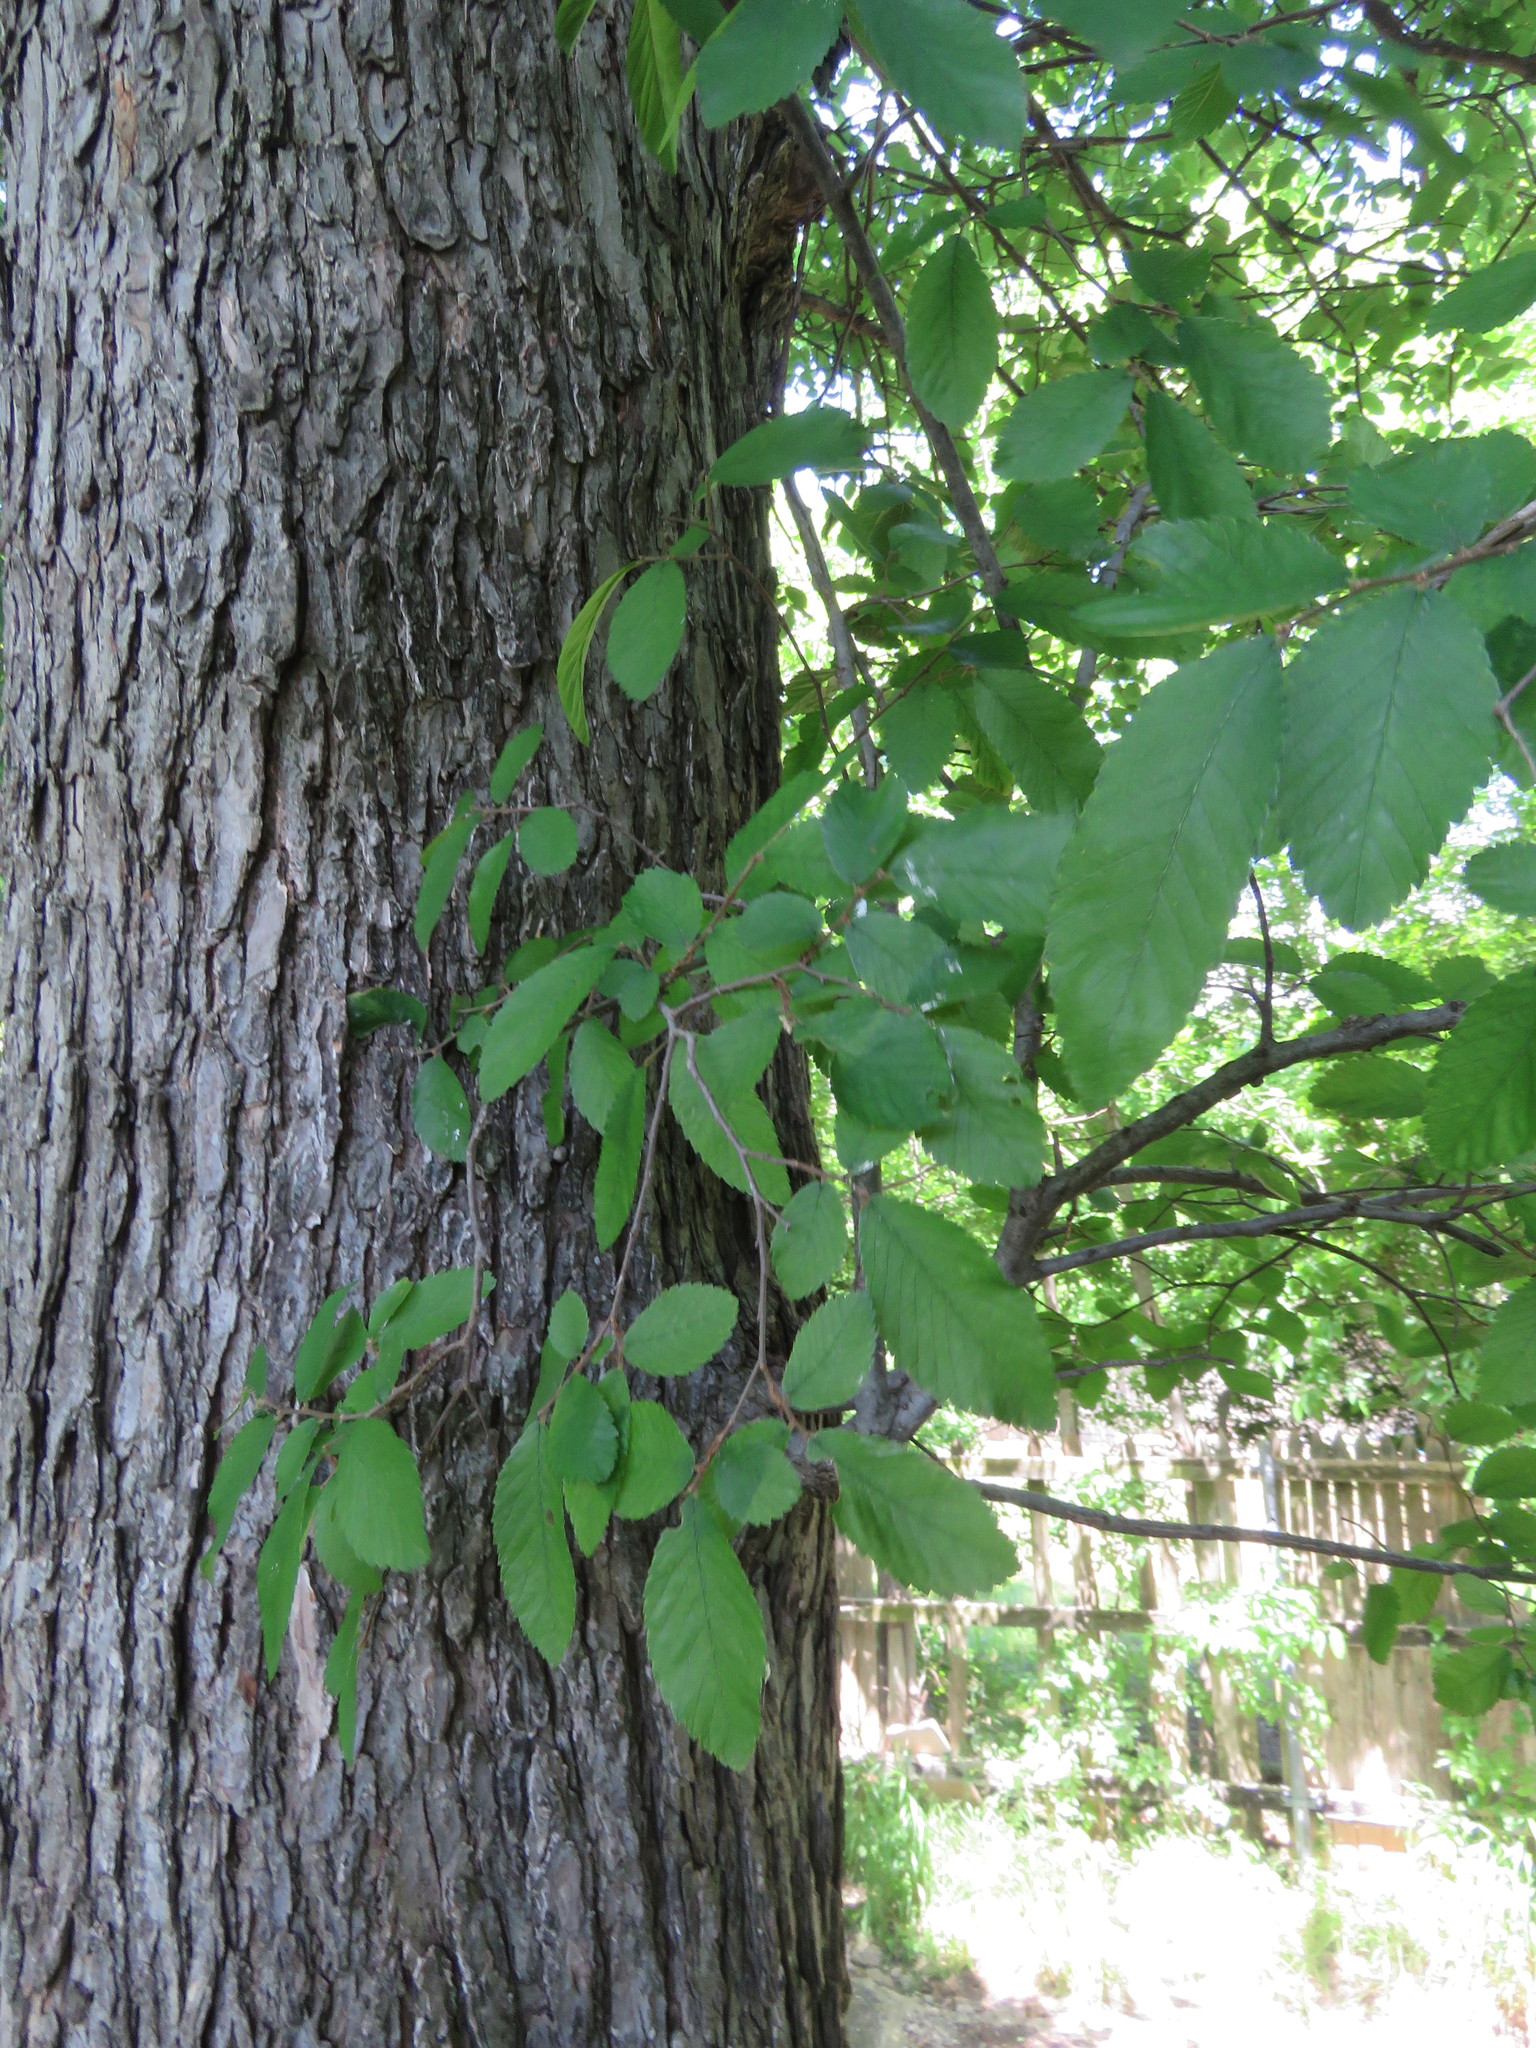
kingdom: Plantae
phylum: Tracheophyta
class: Magnoliopsida
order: Rosales
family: Ulmaceae
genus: Ulmus
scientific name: Ulmus crassifolia
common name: Basket elm
